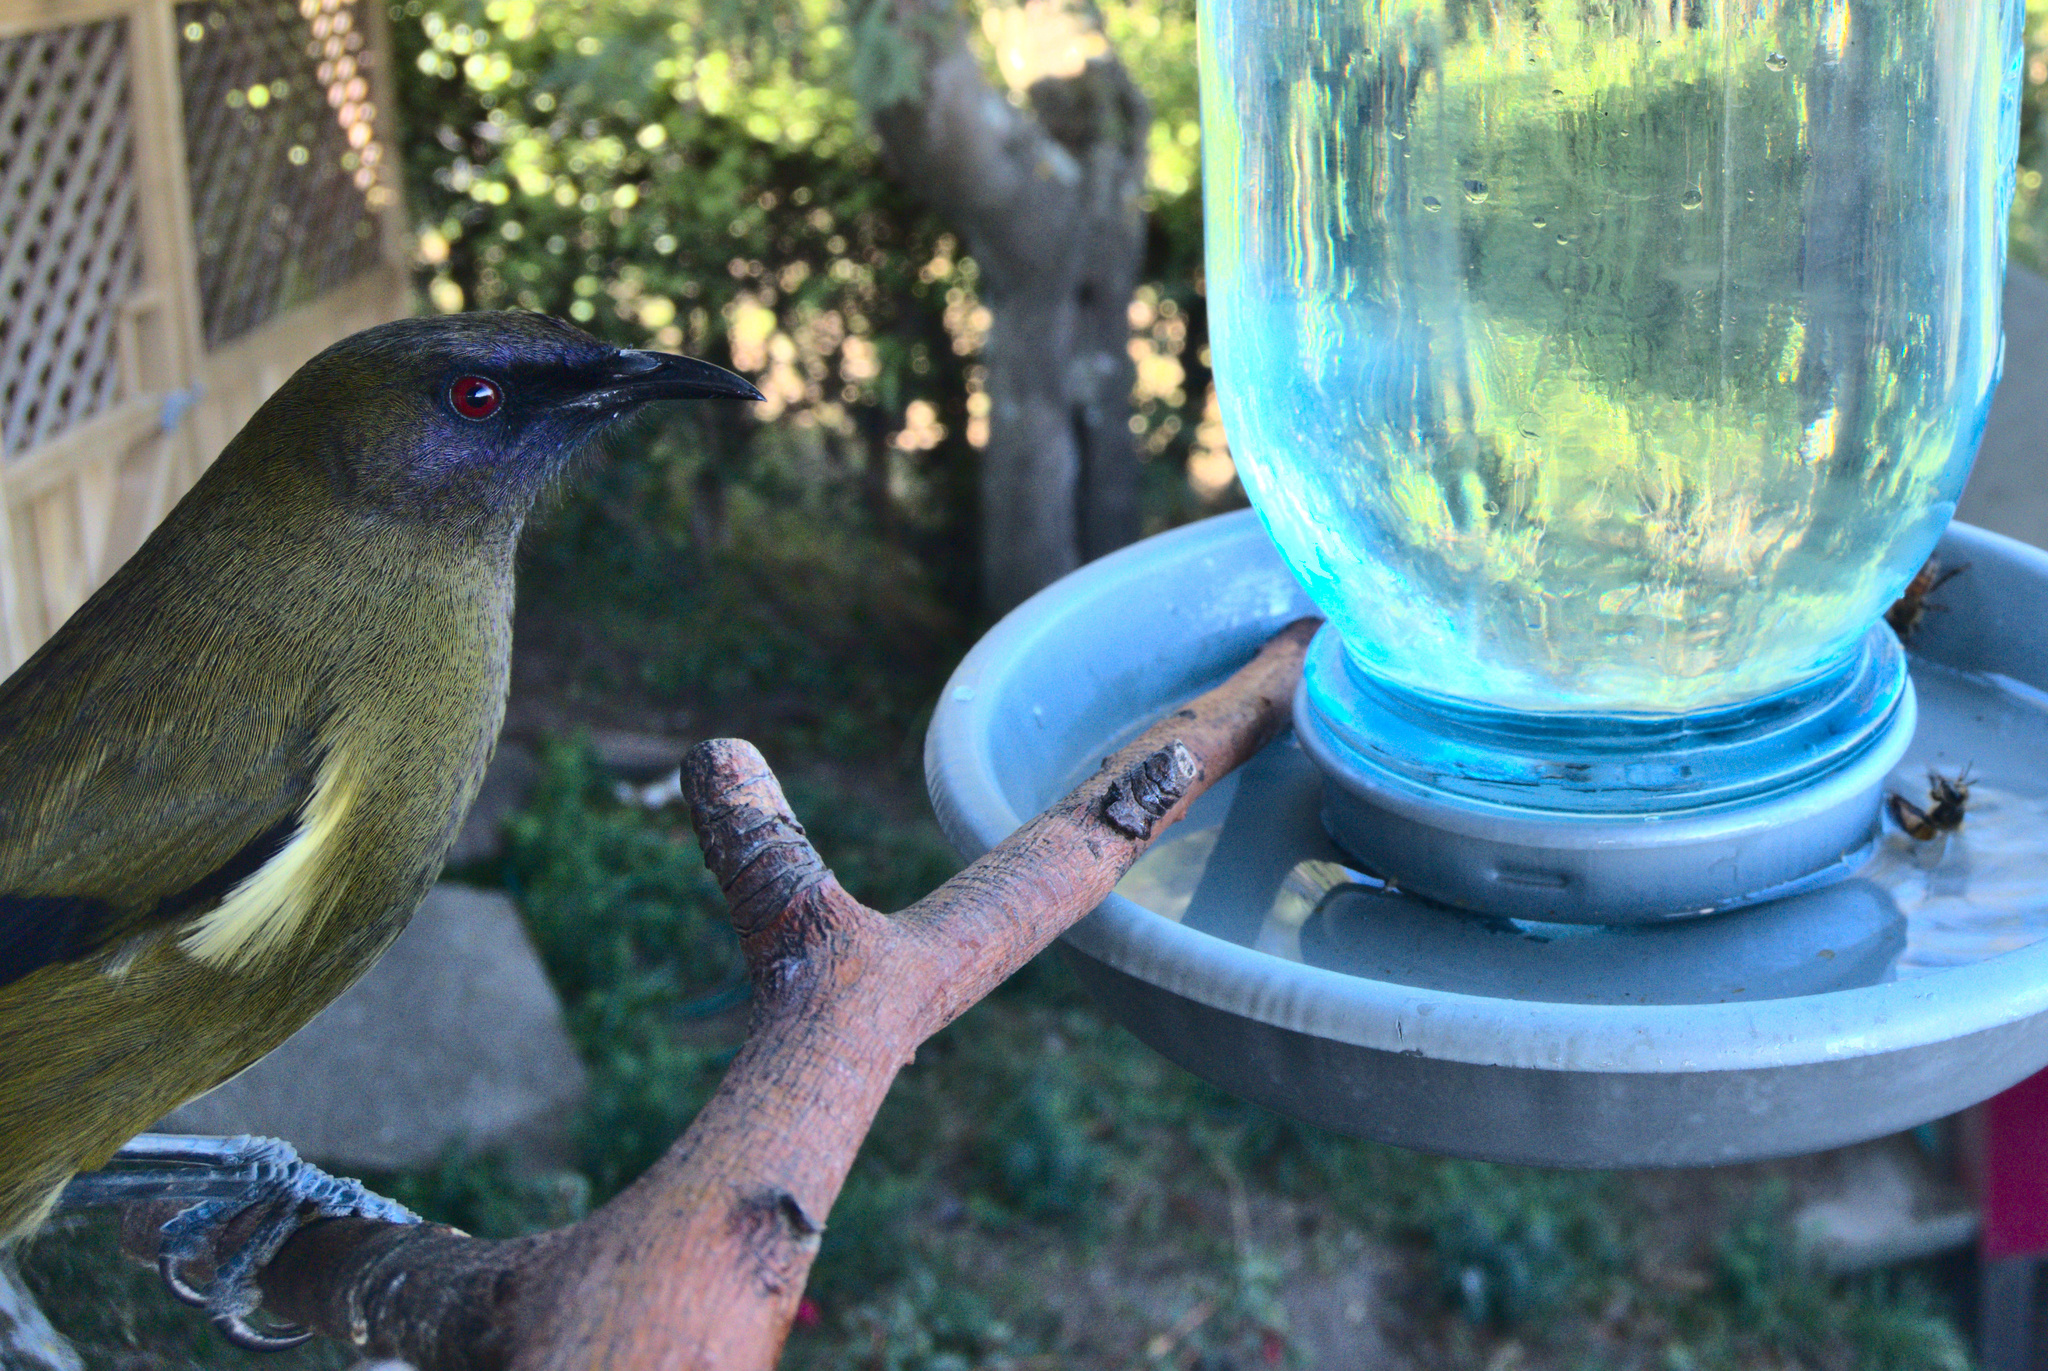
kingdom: Animalia
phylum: Chordata
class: Aves
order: Passeriformes
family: Meliphagidae
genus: Anthornis
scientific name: Anthornis melanura
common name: New zealand bellbird
